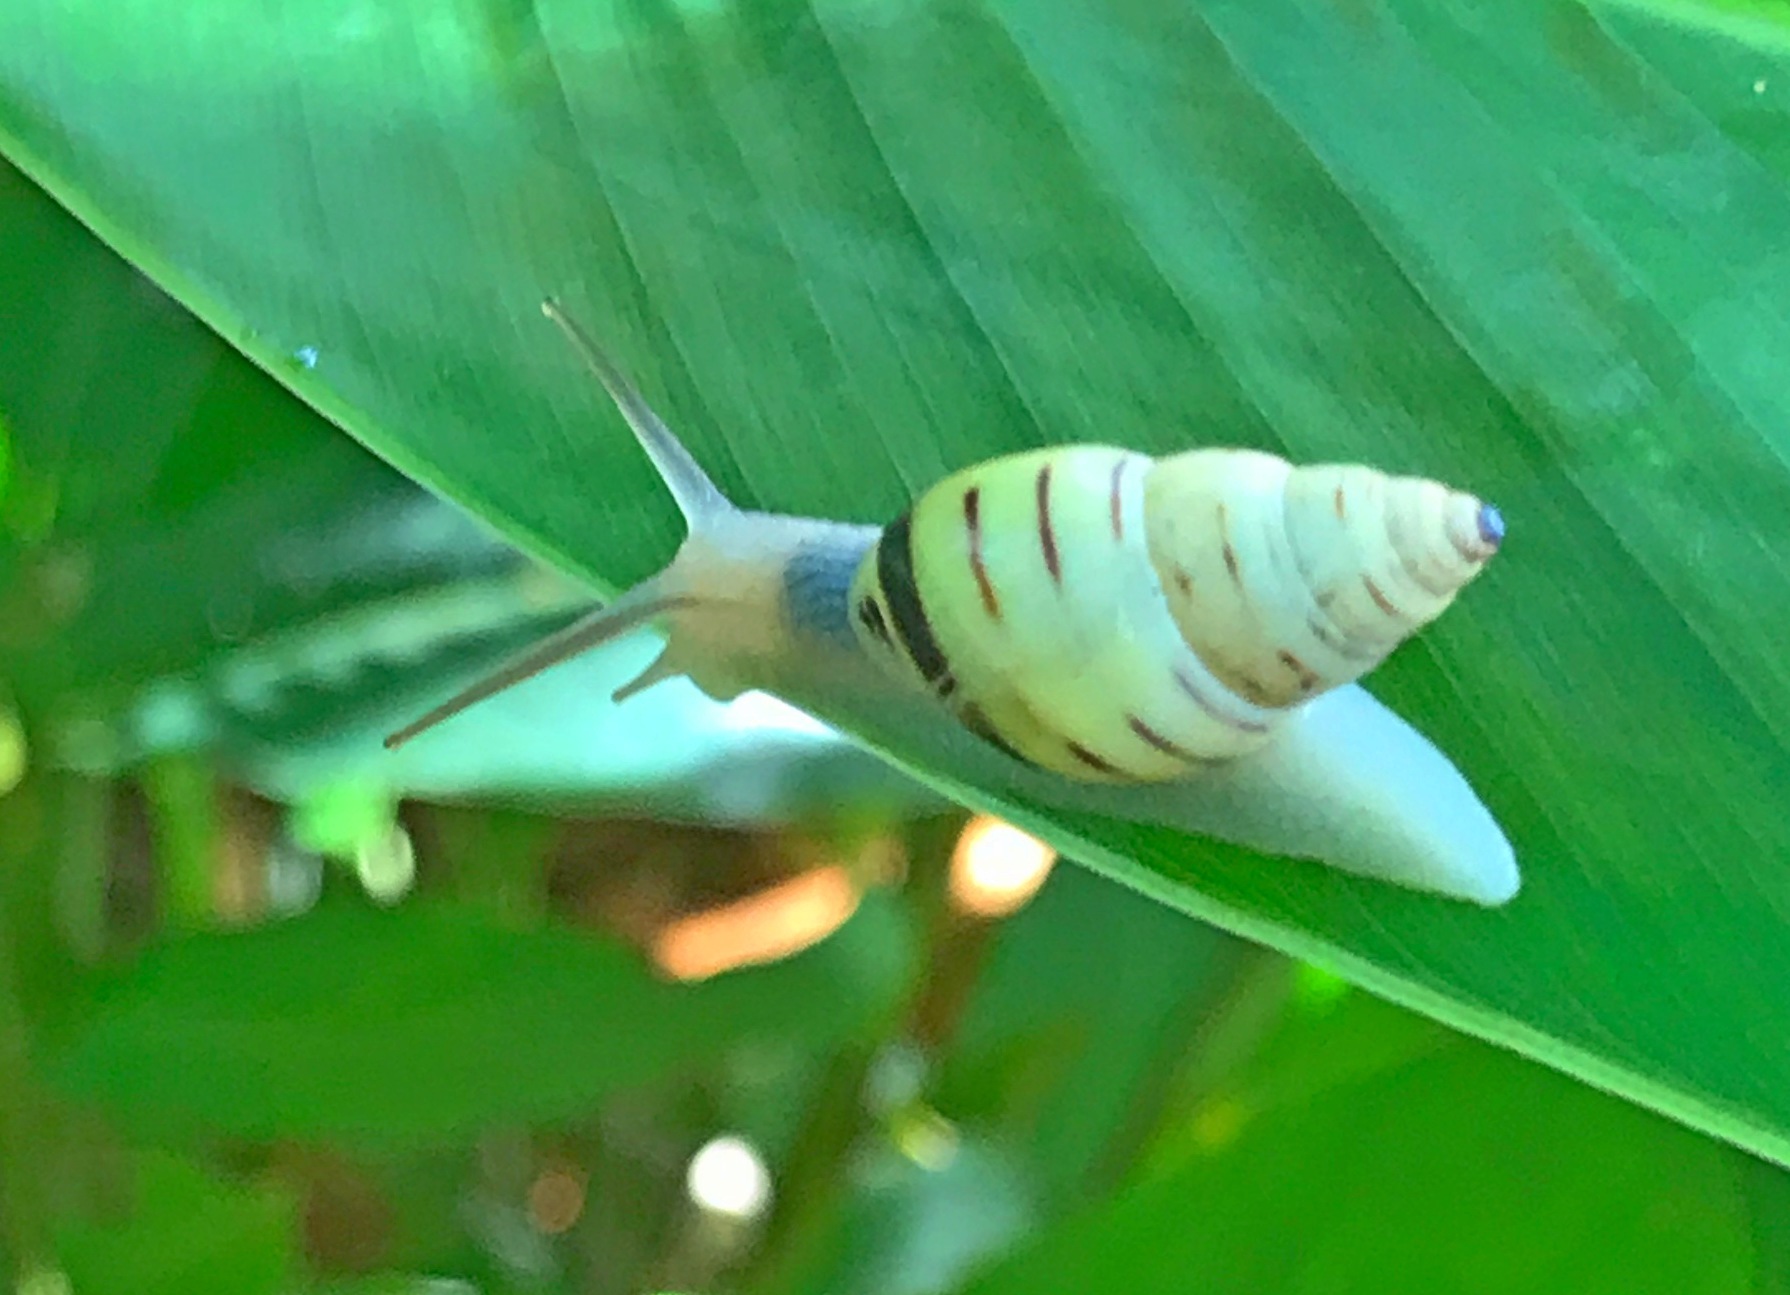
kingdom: Animalia
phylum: Mollusca
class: Gastropoda
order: Stylommatophora
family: Bulimulidae
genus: Drymaeus
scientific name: Drymaeus
